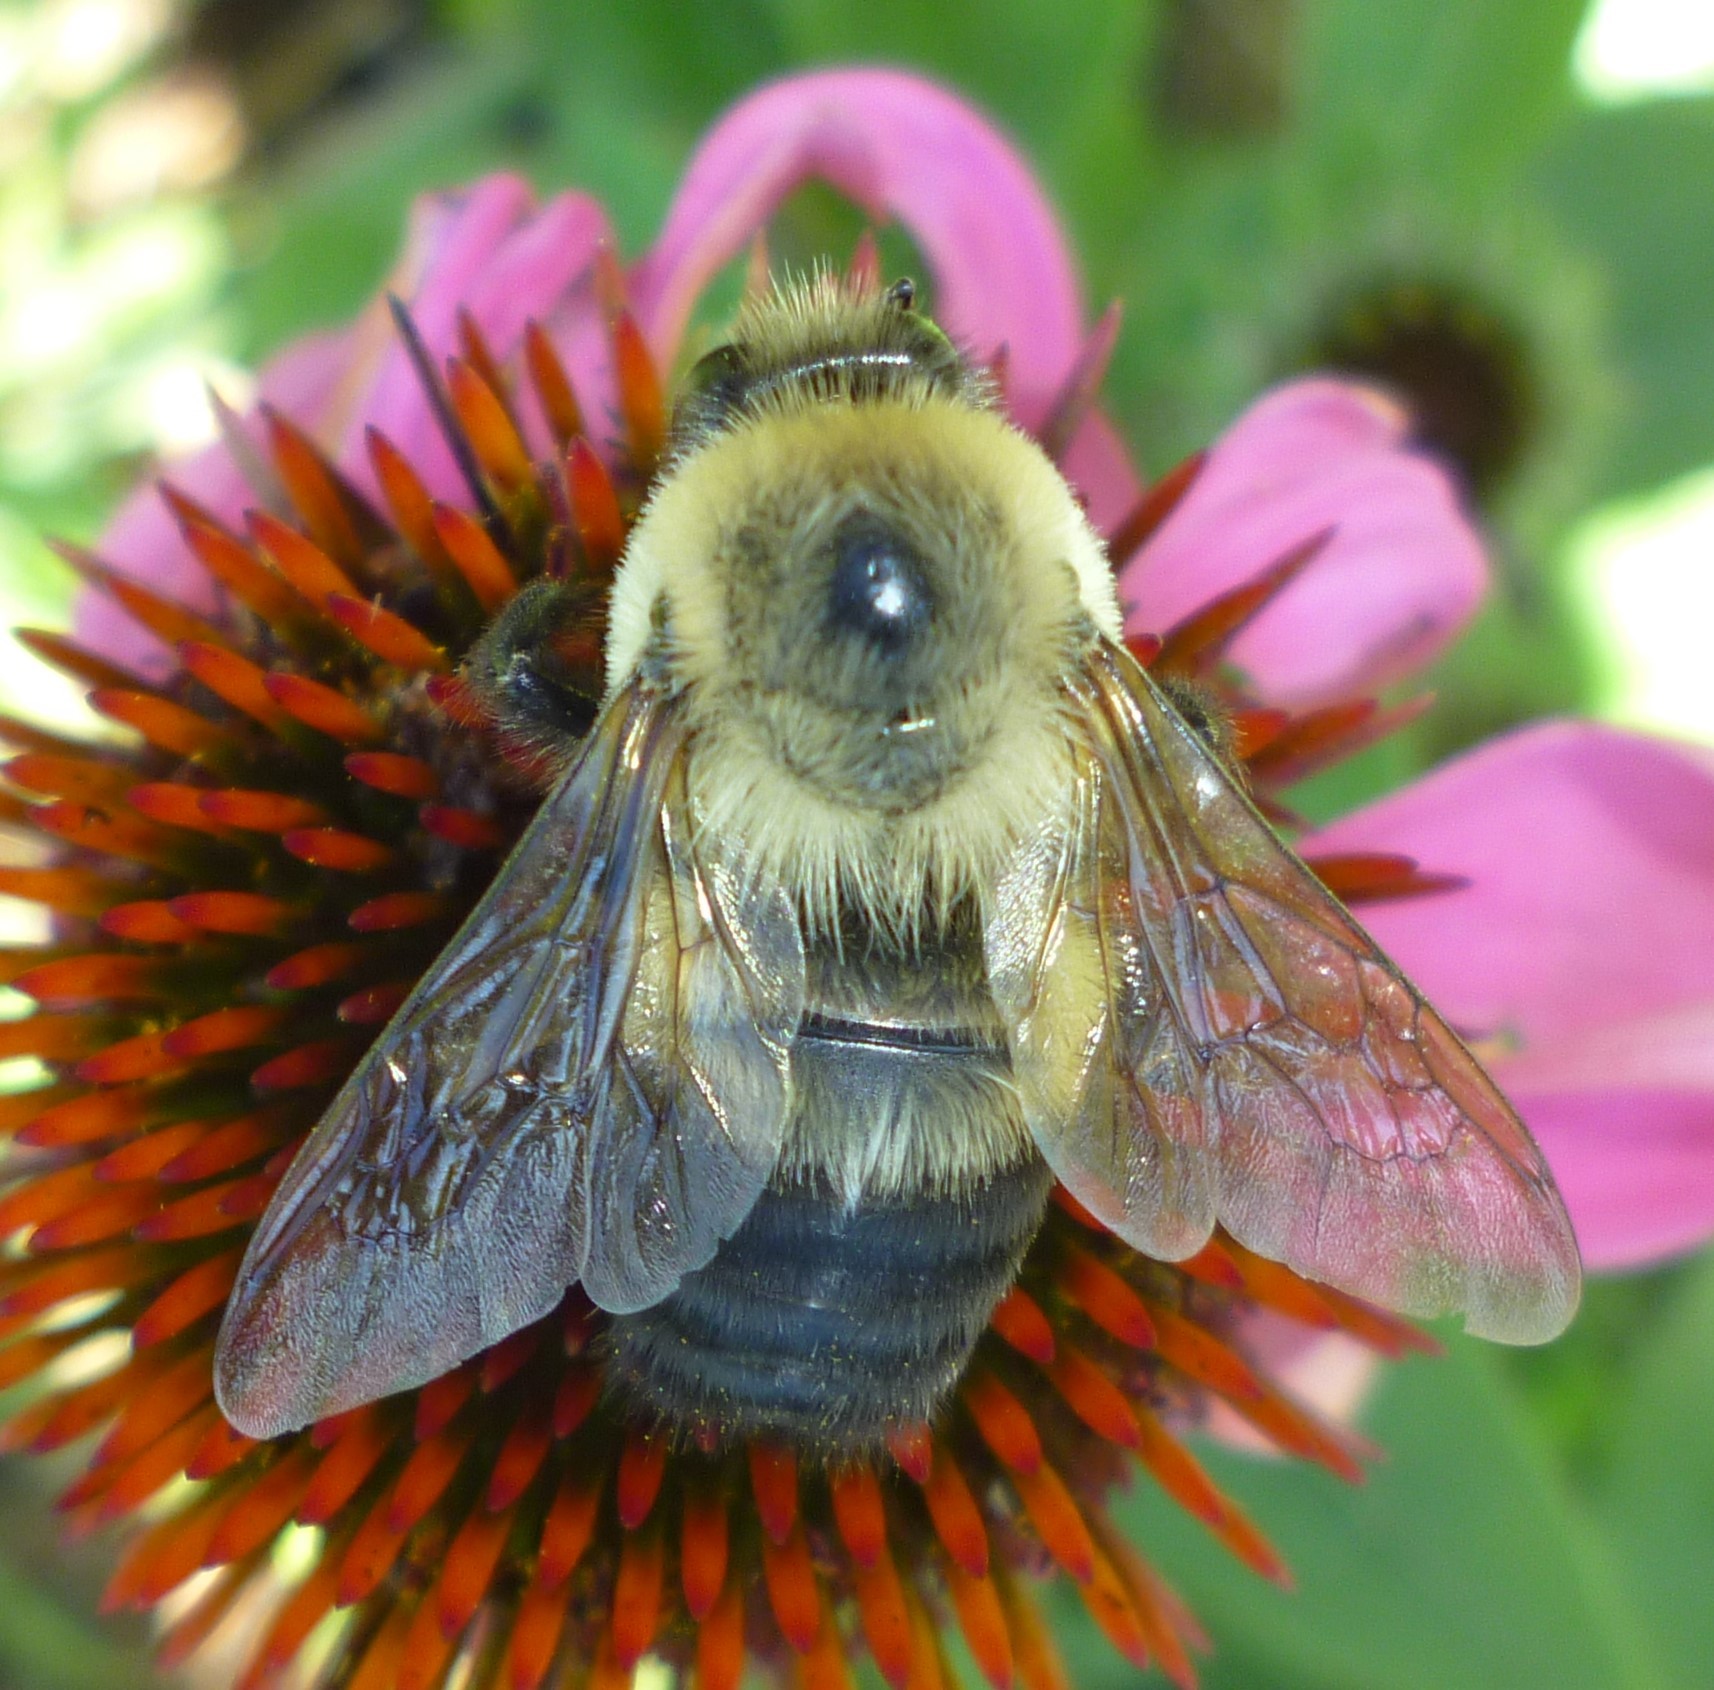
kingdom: Animalia
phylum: Arthropoda
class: Insecta
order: Hymenoptera
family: Apidae
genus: Bombus
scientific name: Bombus griseocollis
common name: Brown-belted bumble bee
